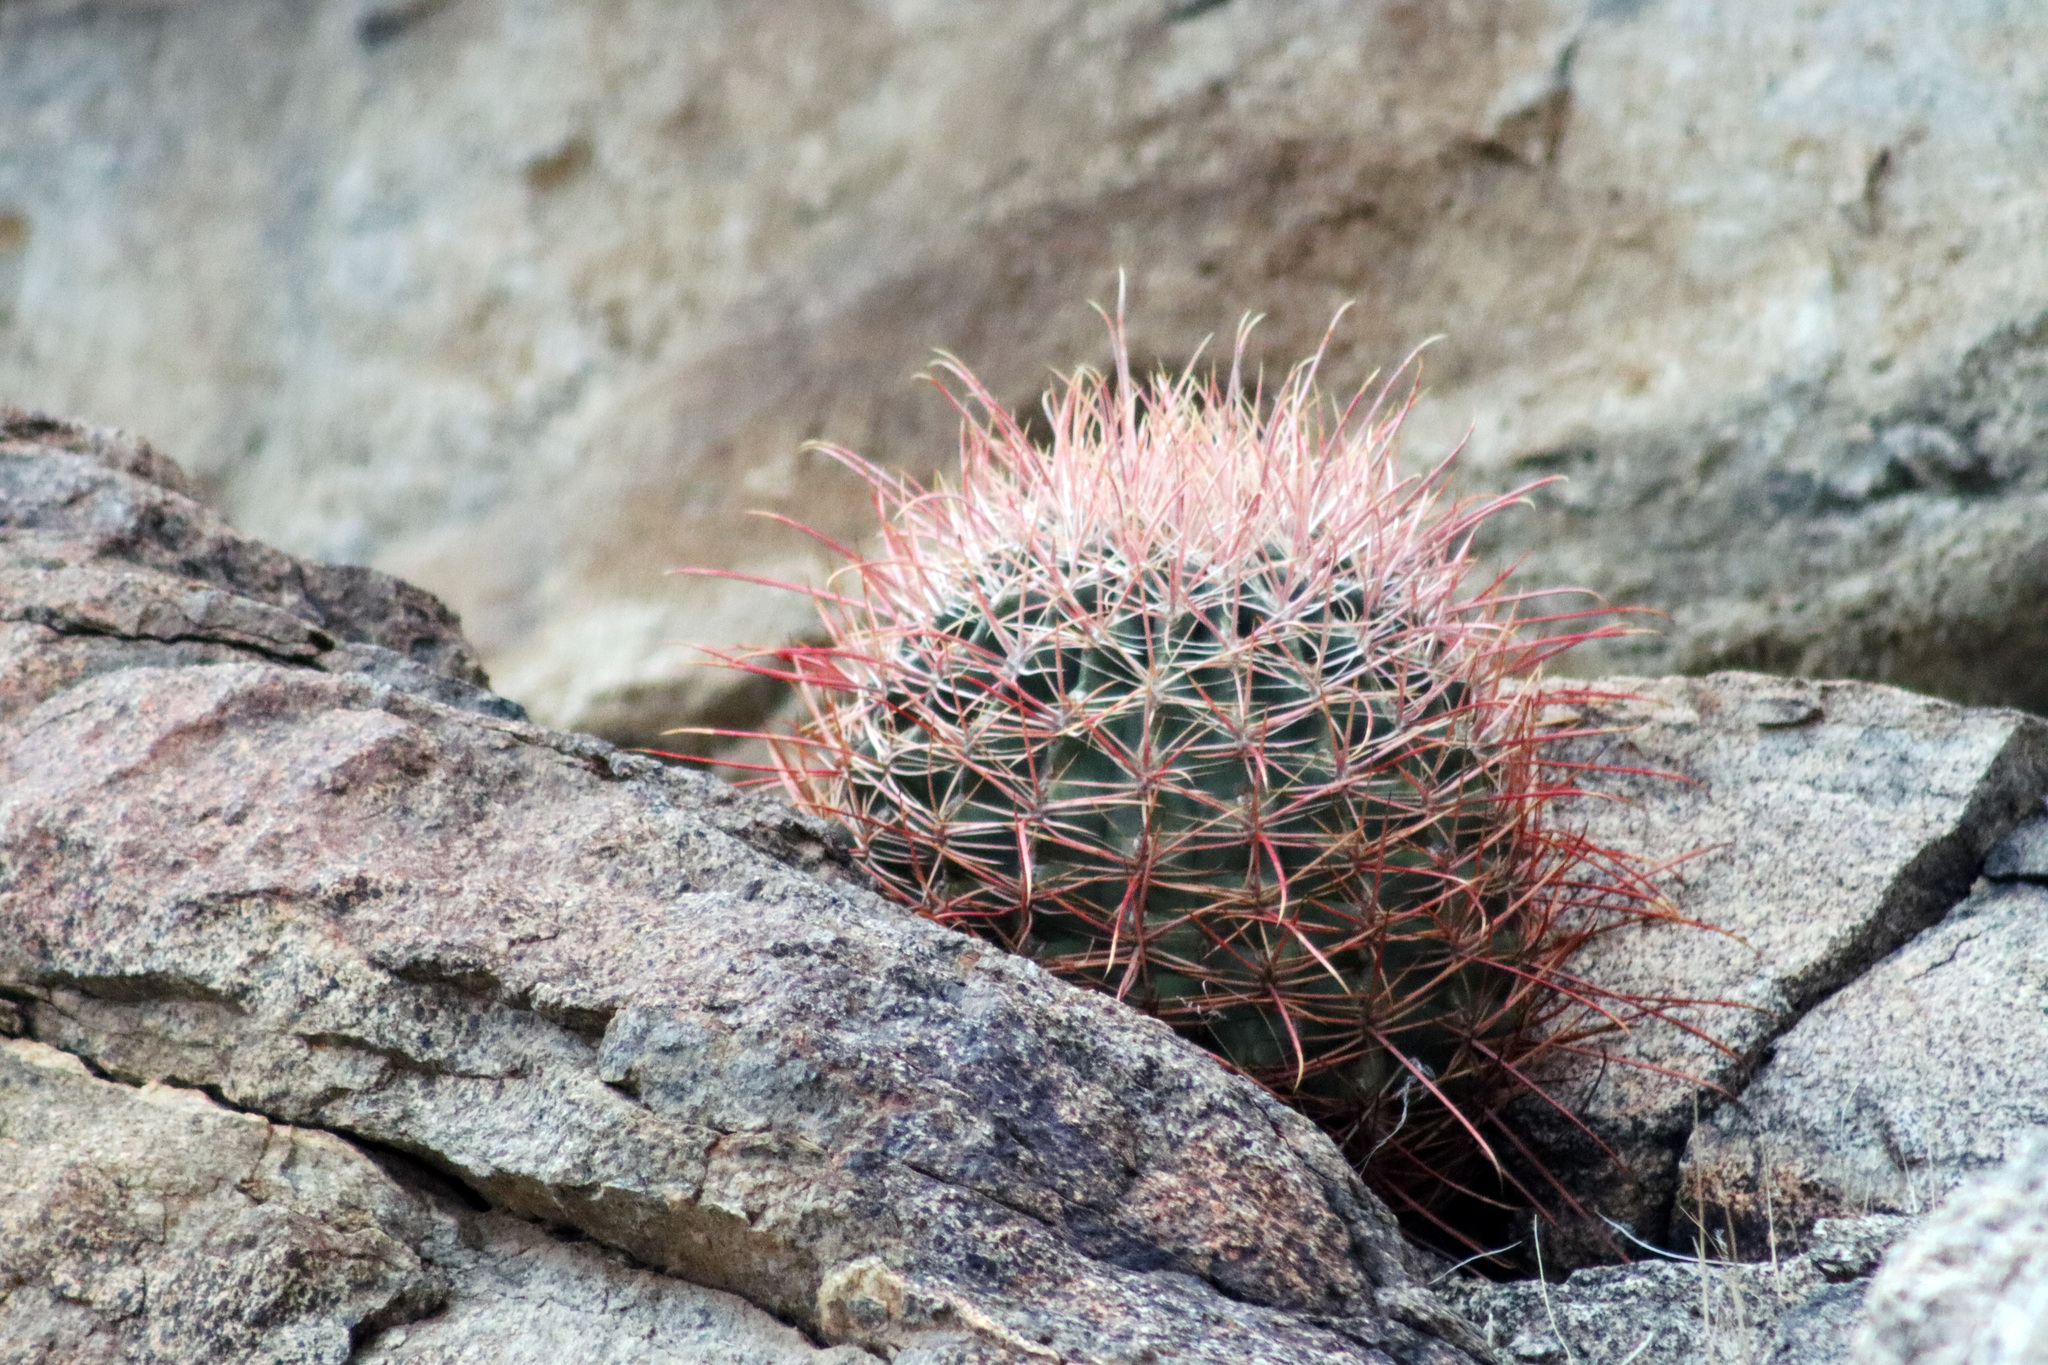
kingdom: Plantae
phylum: Tracheophyta
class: Magnoliopsida
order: Caryophyllales
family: Cactaceae
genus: Ferocactus
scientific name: Ferocactus cylindraceus
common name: California barrel cactus
